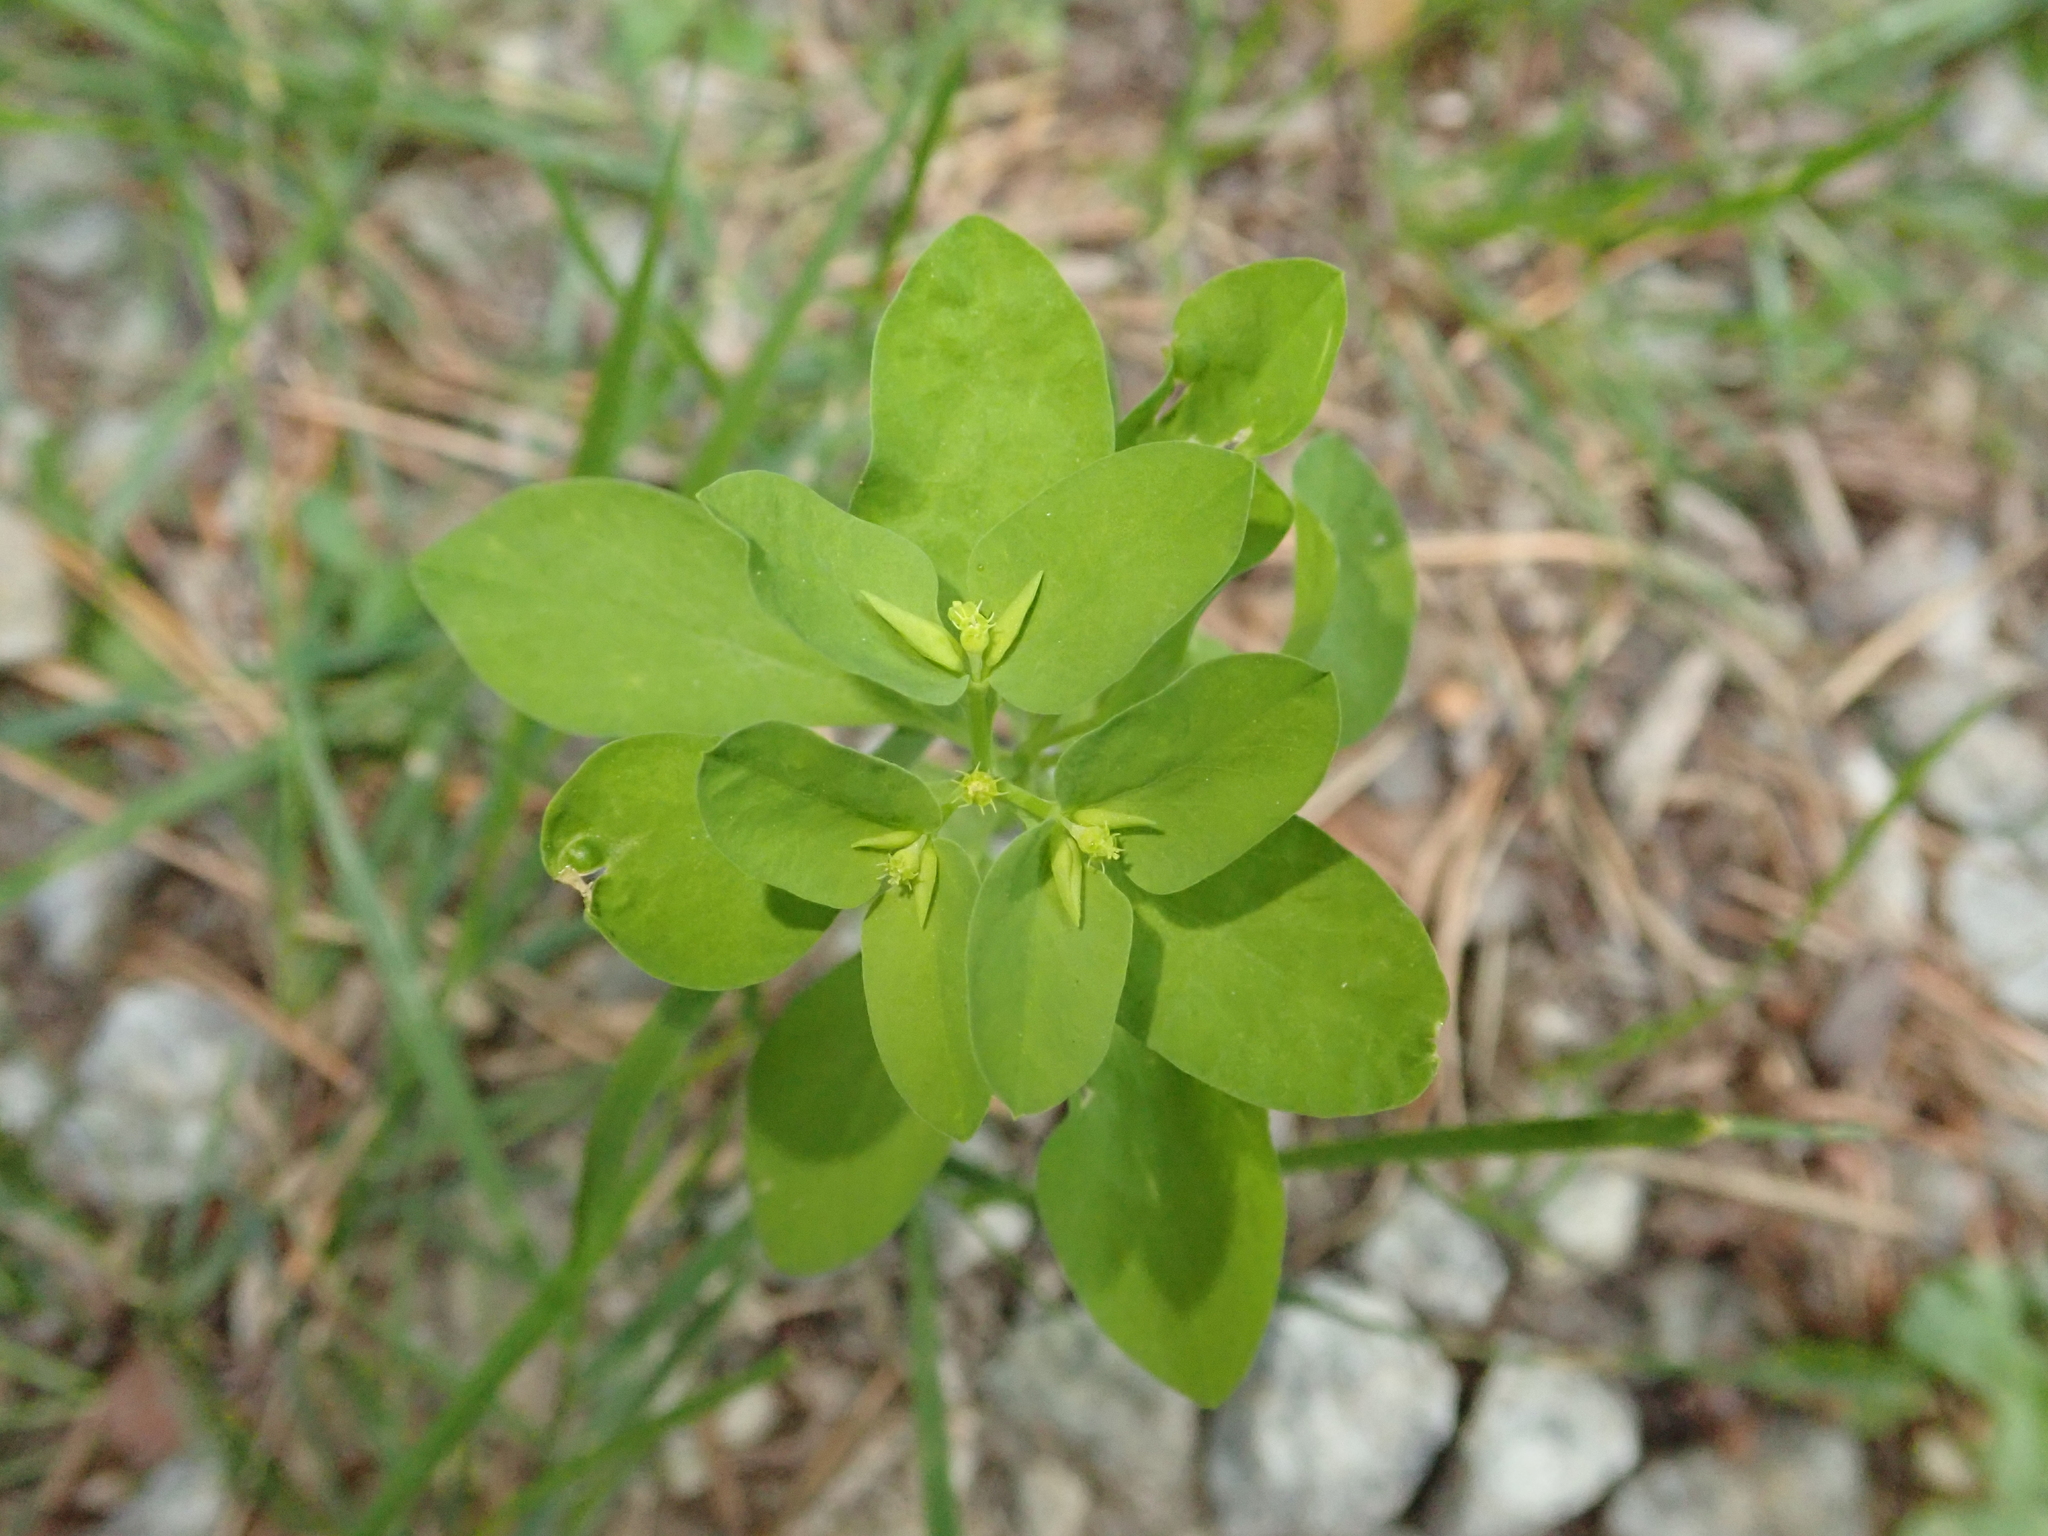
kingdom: Plantae
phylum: Tracheophyta
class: Magnoliopsida
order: Malpighiales
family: Euphorbiaceae
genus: Euphorbia
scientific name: Euphorbia peplus
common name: Petty spurge
